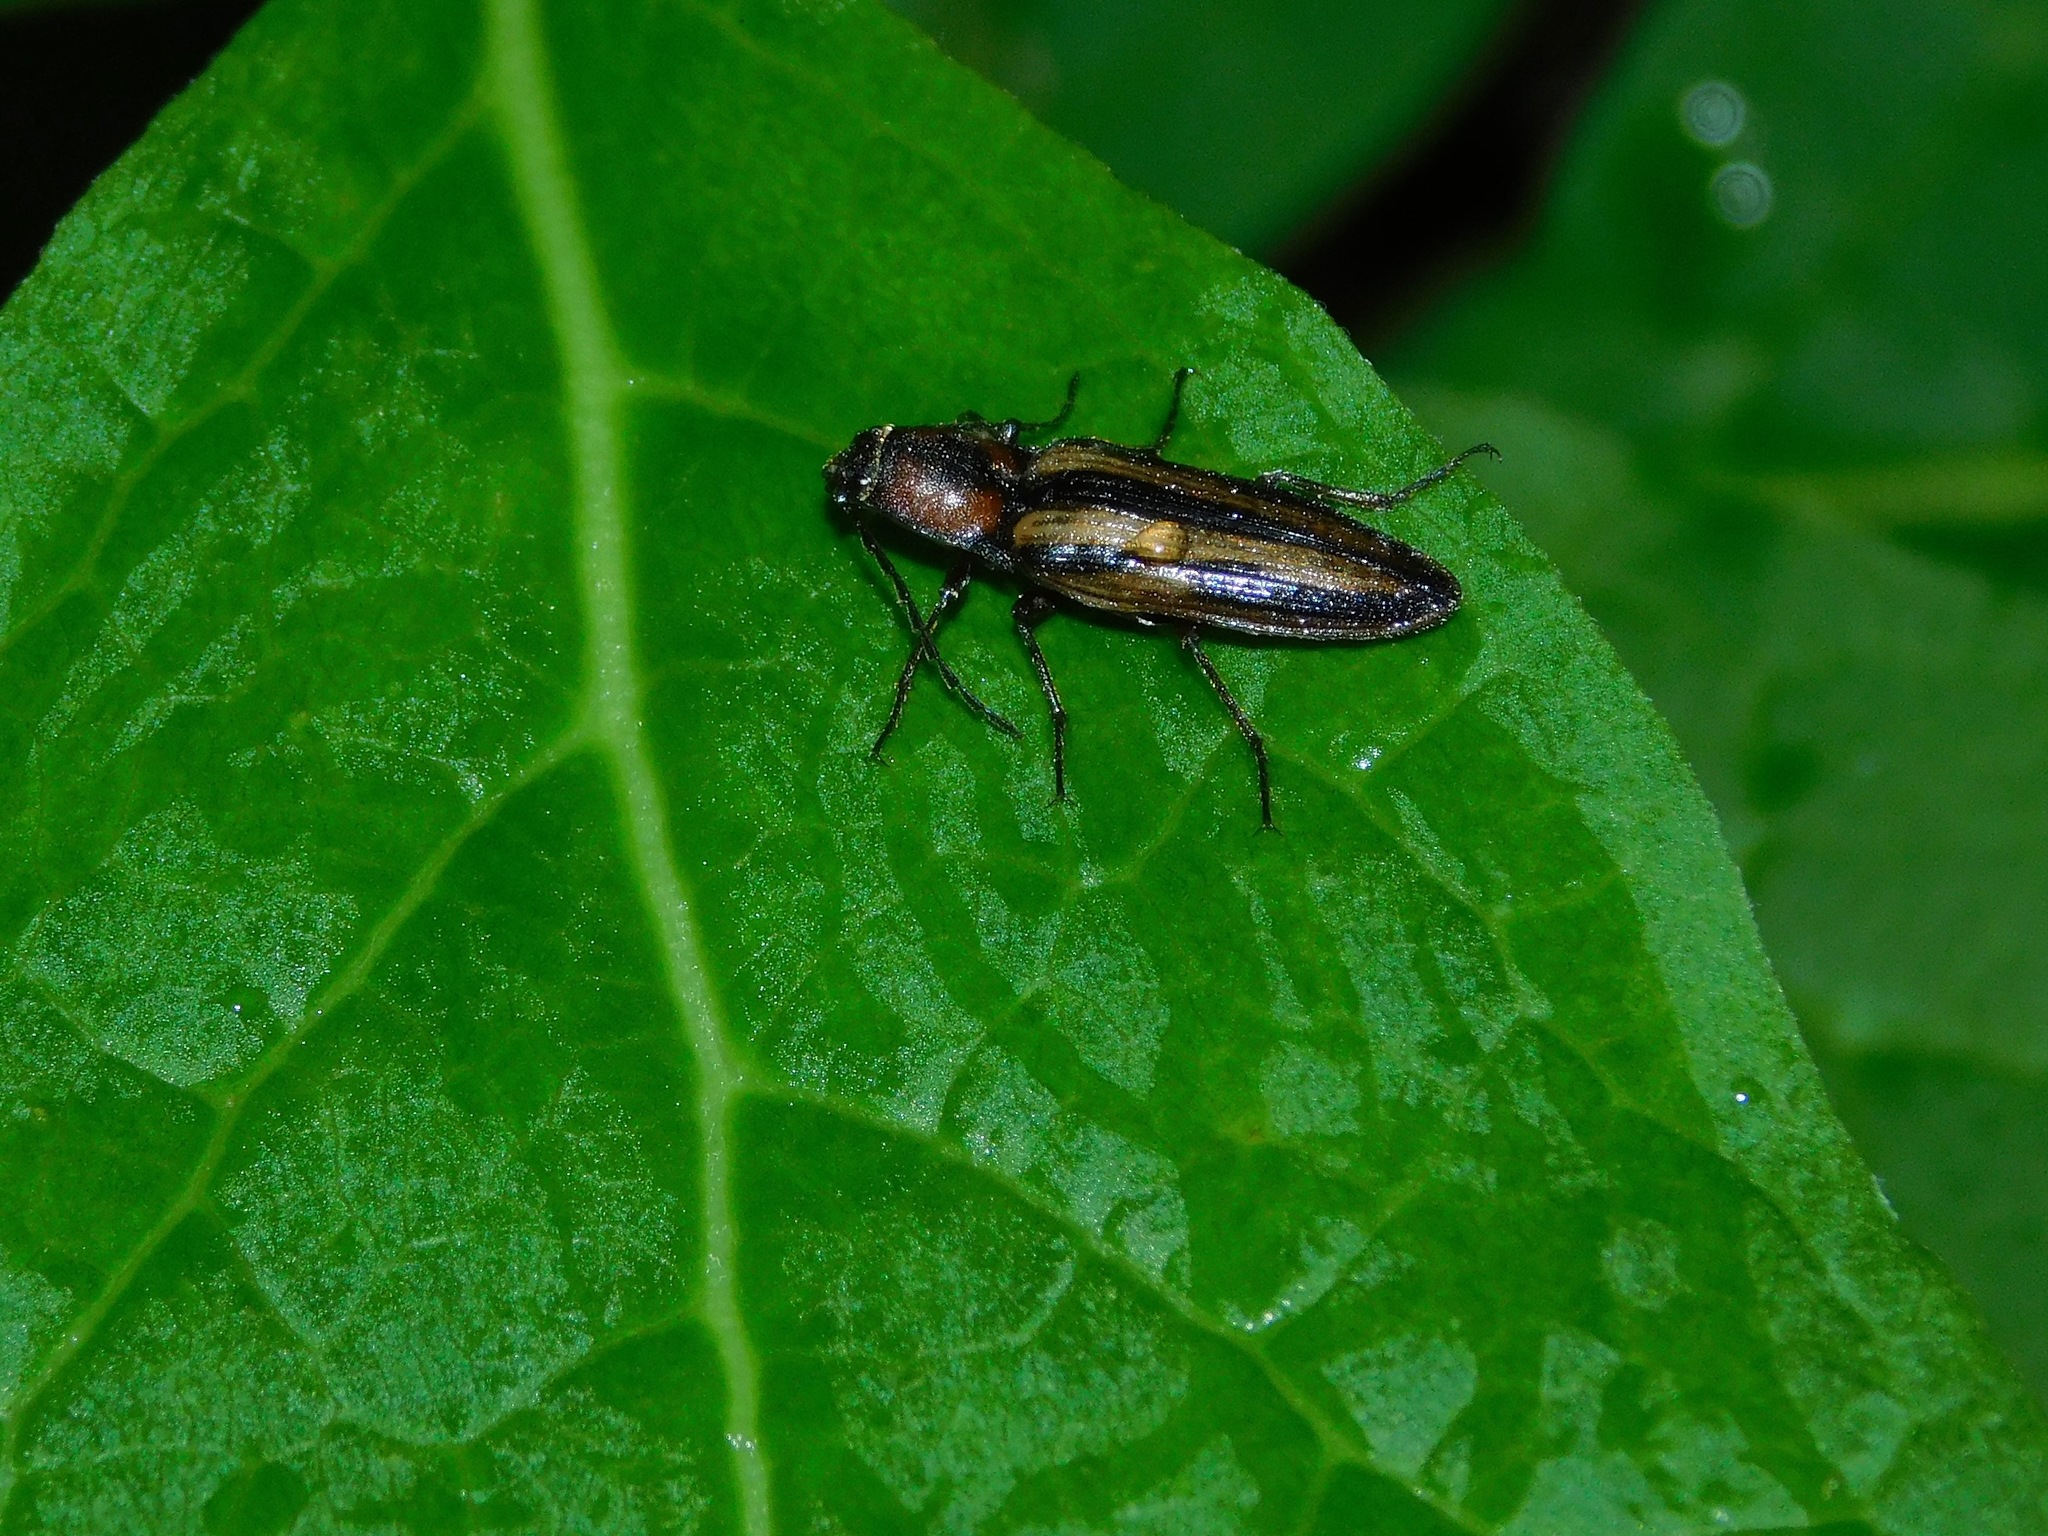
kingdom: Animalia
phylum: Arthropoda
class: Insecta
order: Coleoptera
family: Elateridae
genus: Tesolasomus
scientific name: Tesolasomus
